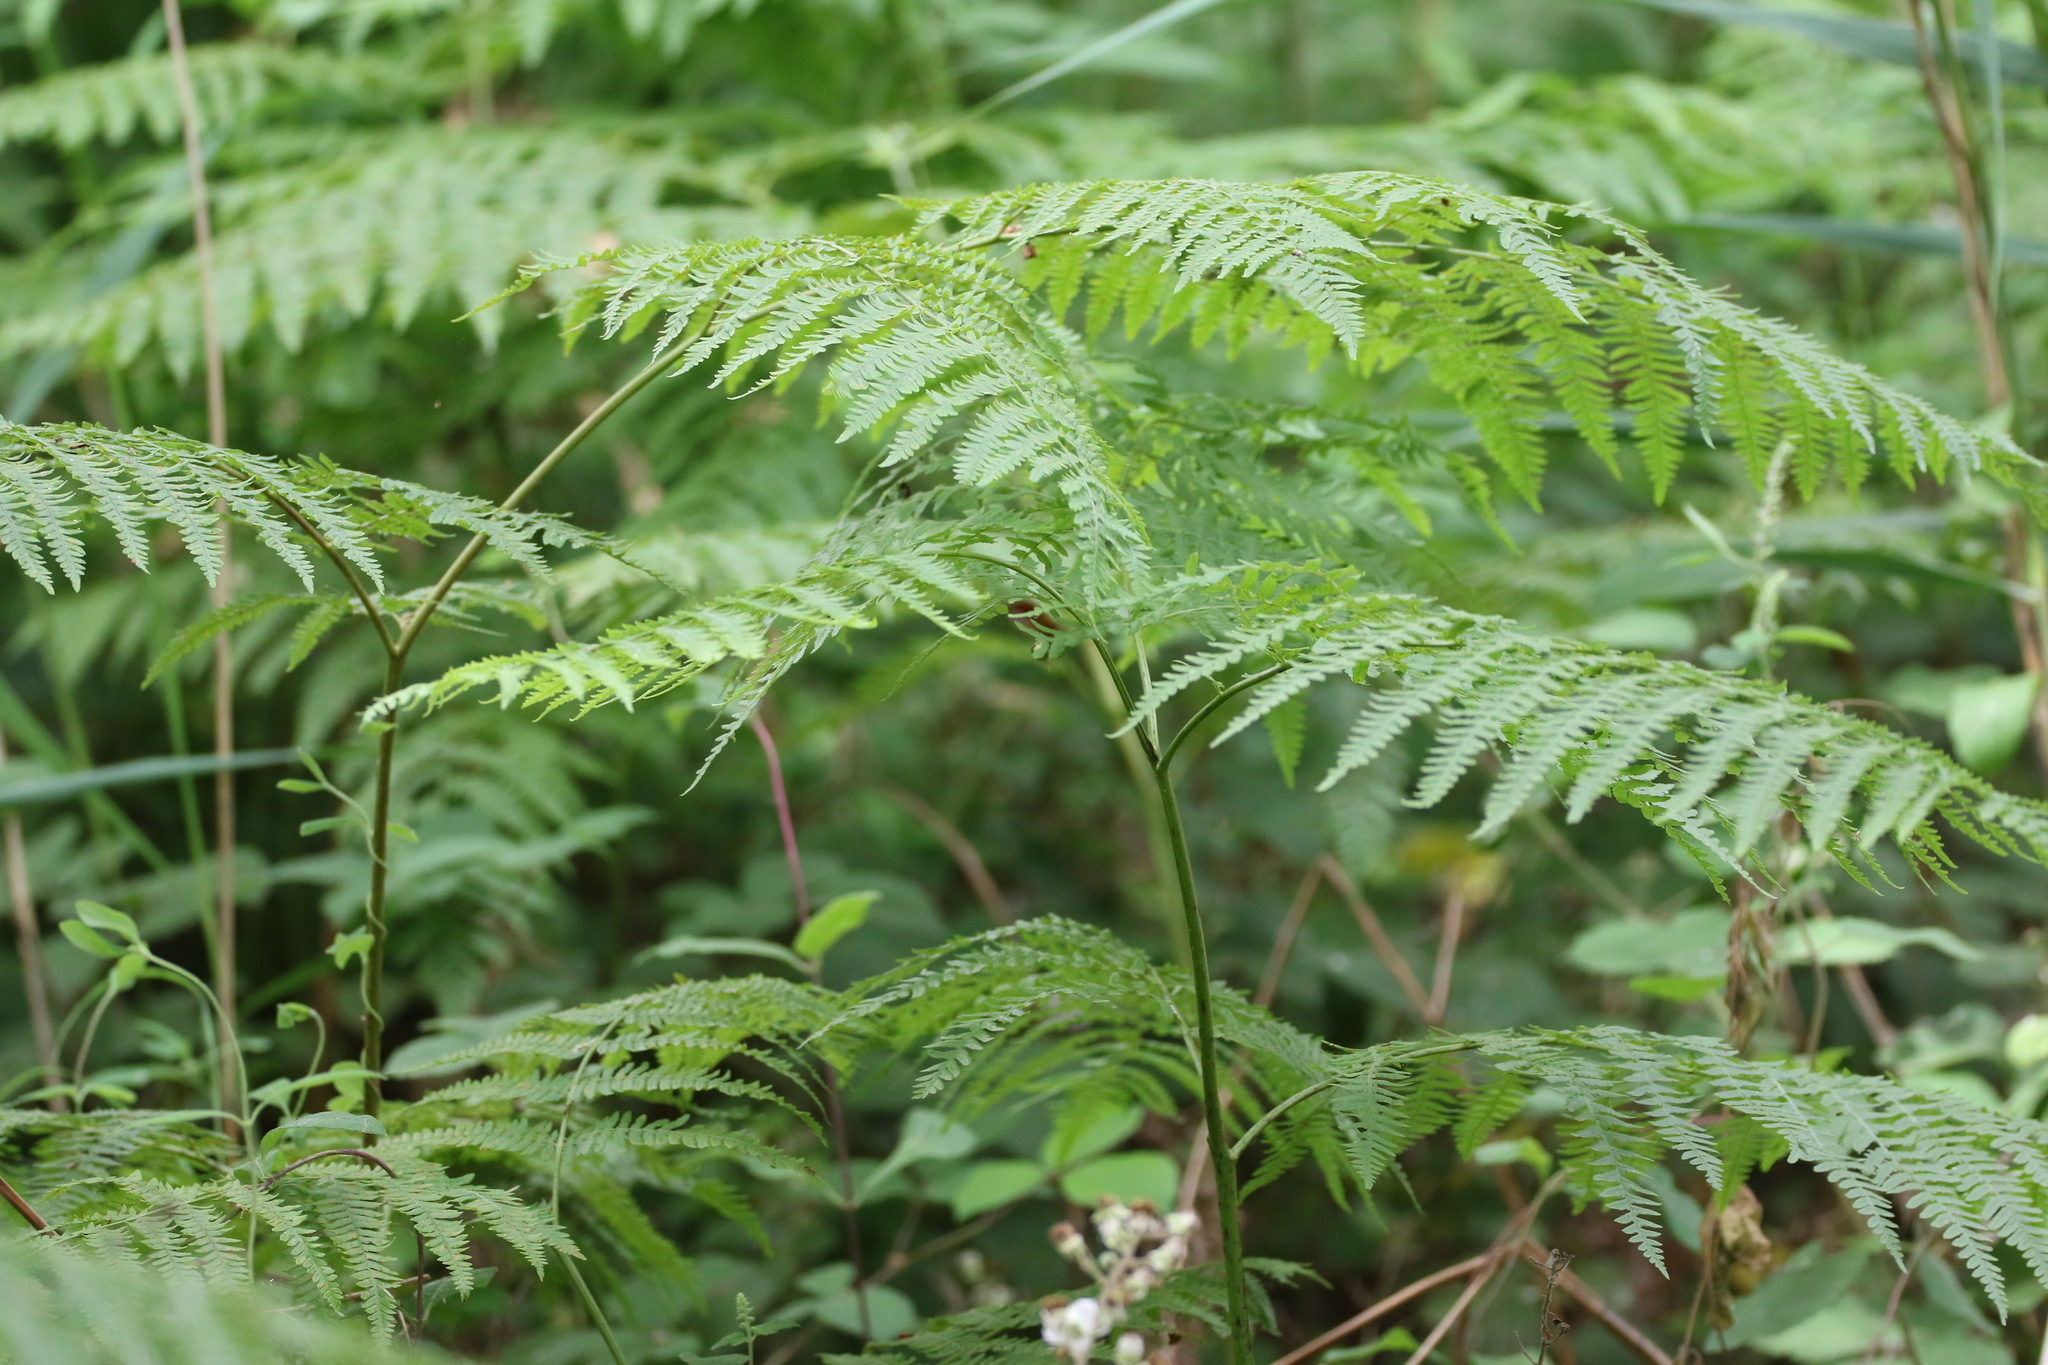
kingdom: Plantae
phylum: Tracheophyta
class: Polypodiopsida
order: Polypodiales
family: Dennstaedtiaceae
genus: Pteridium
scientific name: Pteridium aquilinum
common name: Bracken
